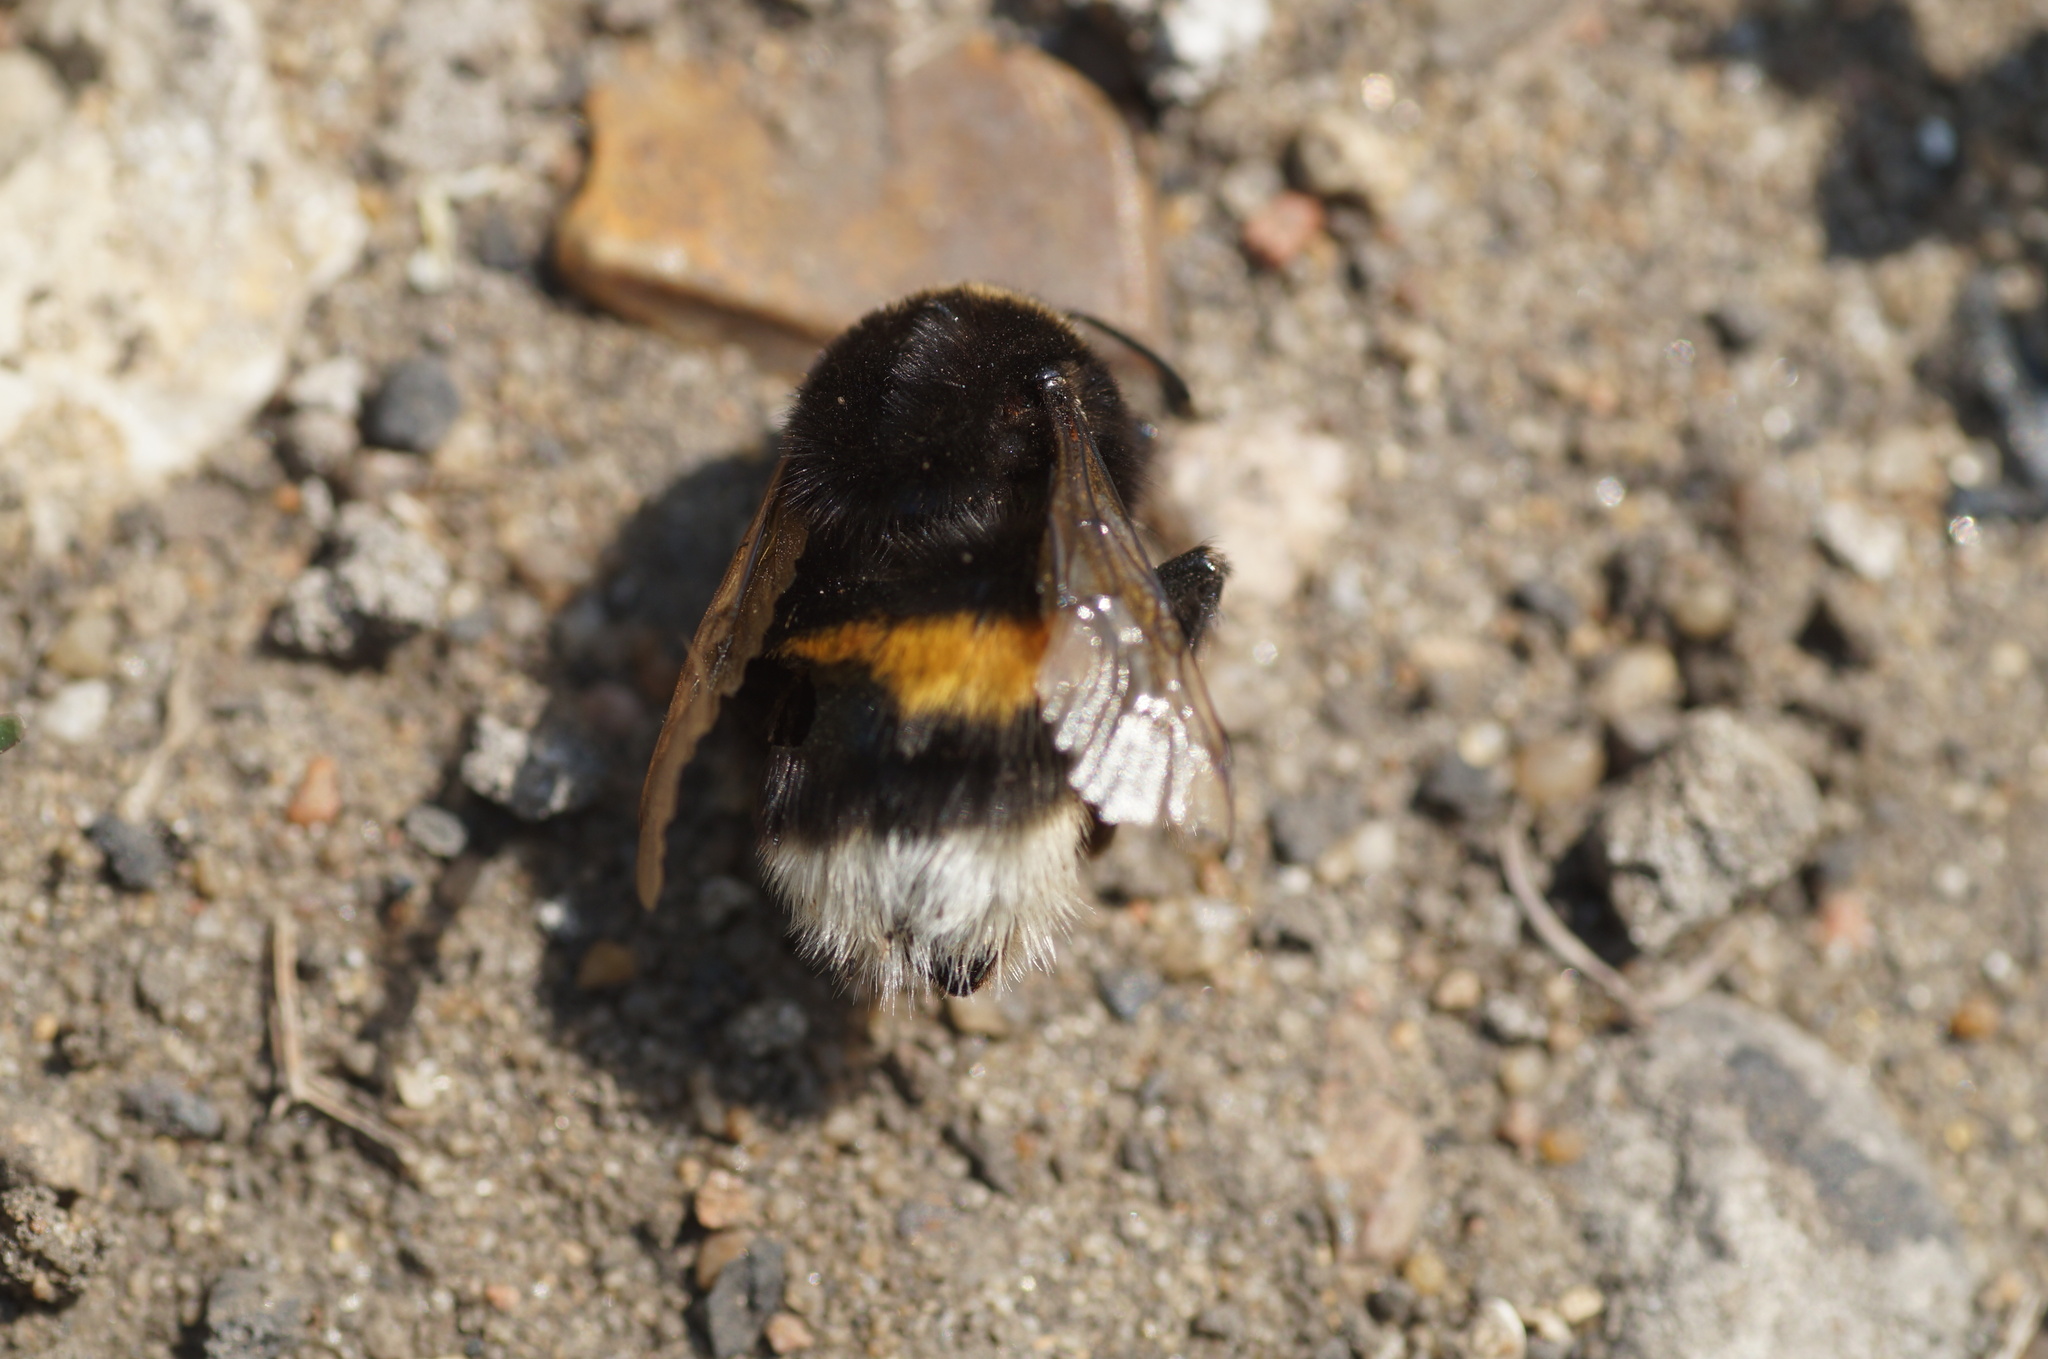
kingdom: Animalia
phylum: Arthropoda
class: Insecta
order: Hymenoptera
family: Apidae
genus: Bombus
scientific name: Bombus
